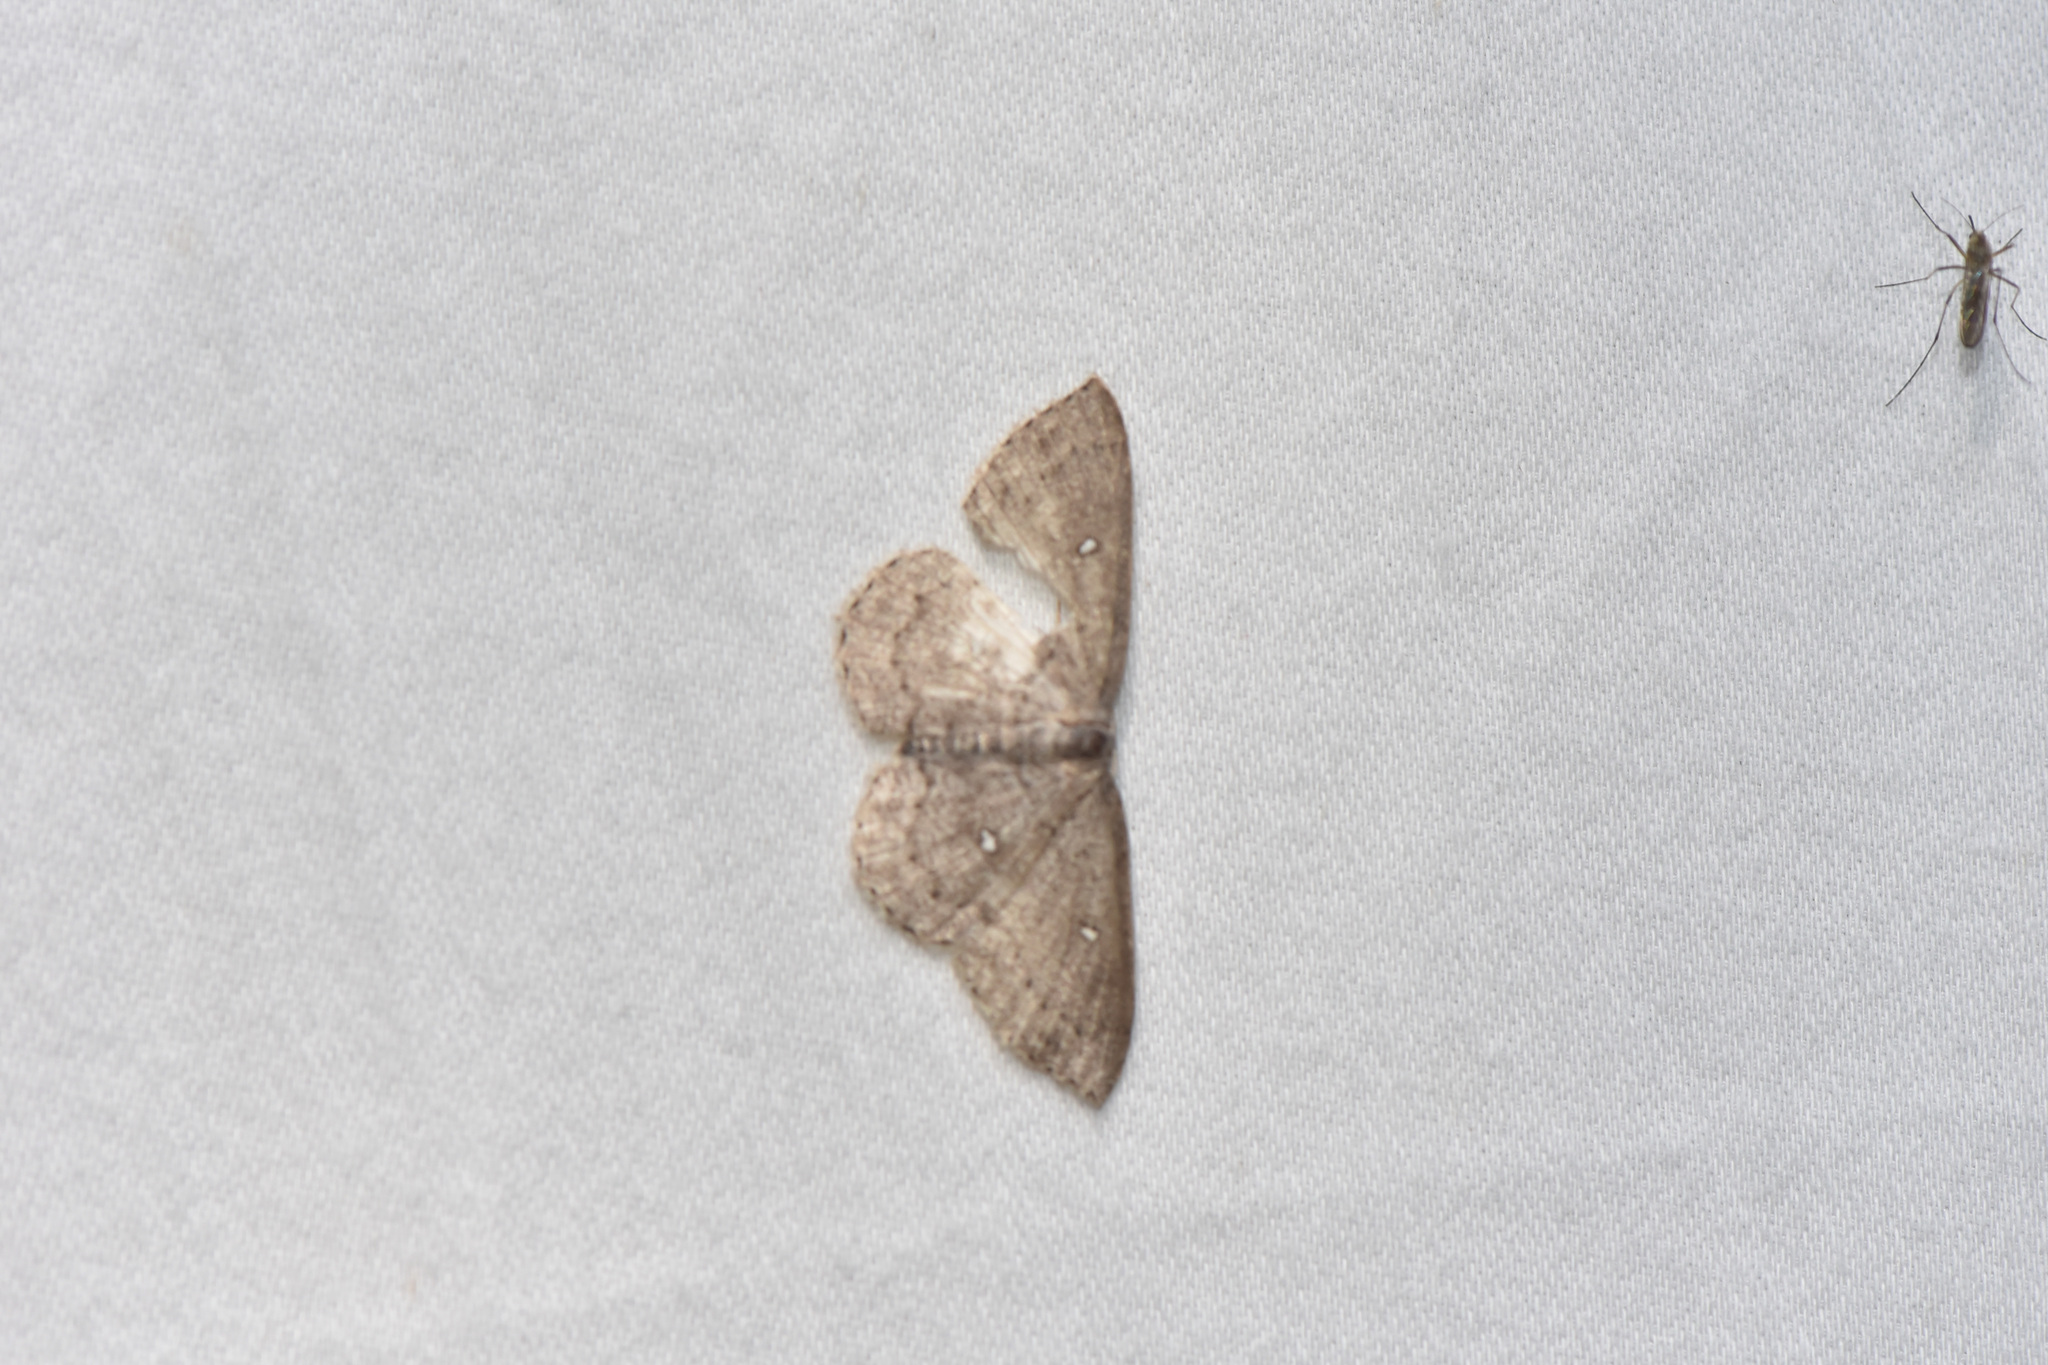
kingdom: Animalia
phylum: Arthropoda
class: Insecta
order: Lepidoptera
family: Geometridae
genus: Cyclophora
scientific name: Cyclophora pendulinaria
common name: Sweet fern geometer
